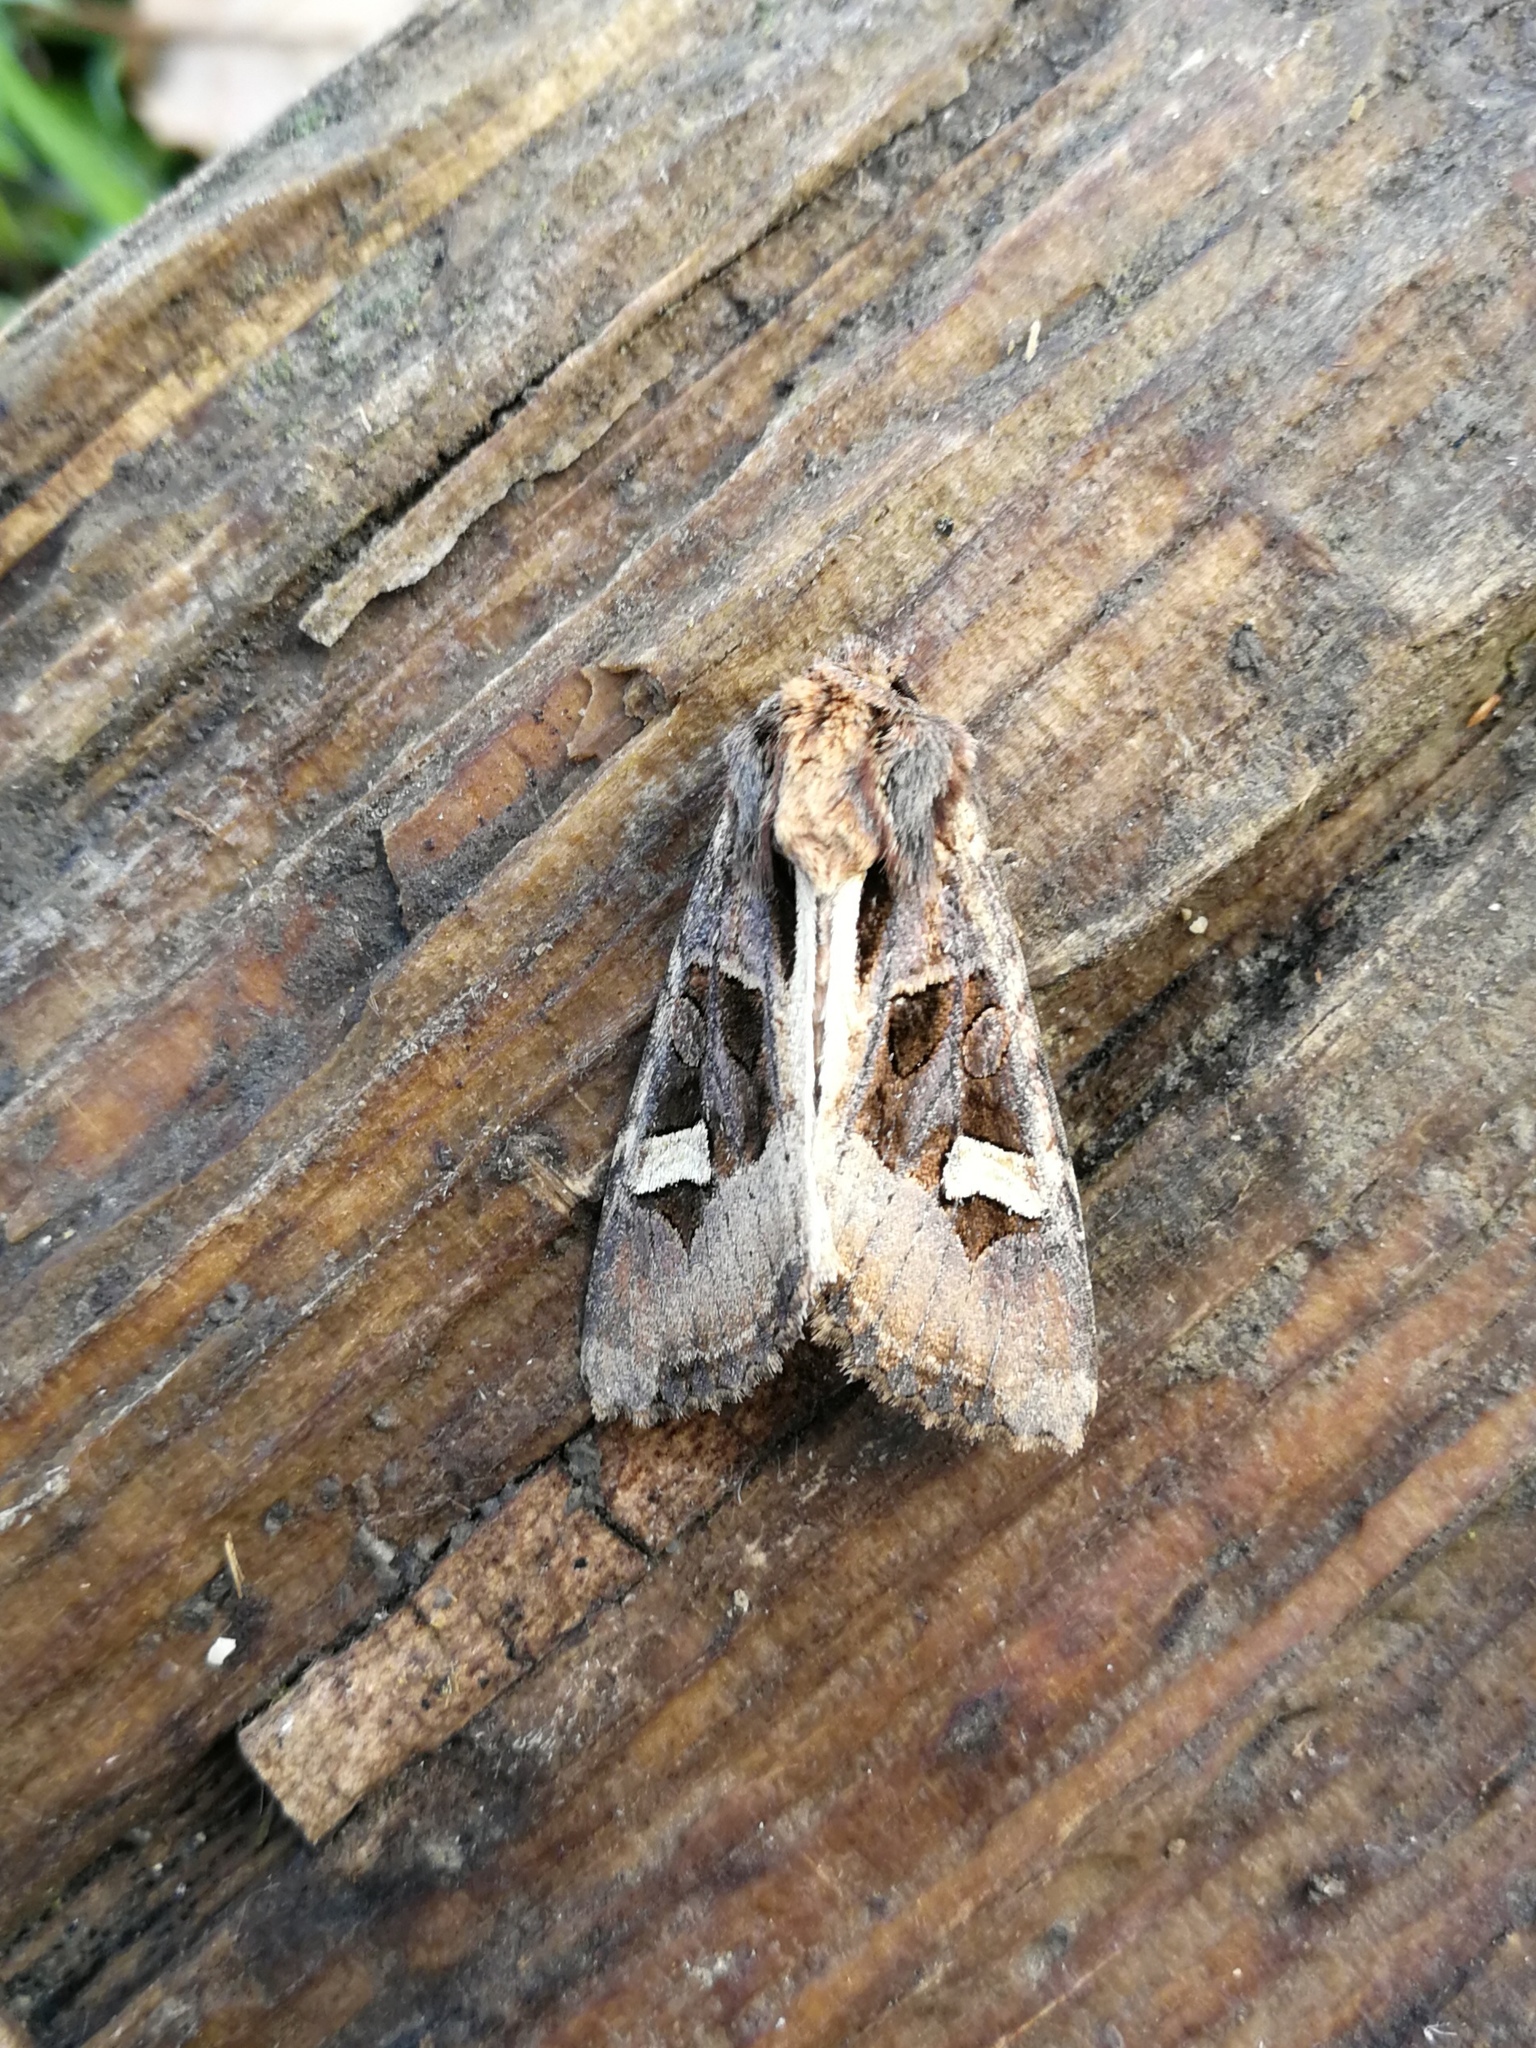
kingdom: Animalia
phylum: Arthropoda
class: Insecta
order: Lepidoptera
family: Noctuidae
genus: Trigonophora
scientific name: Trigonophora flammea
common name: Flame brocade
